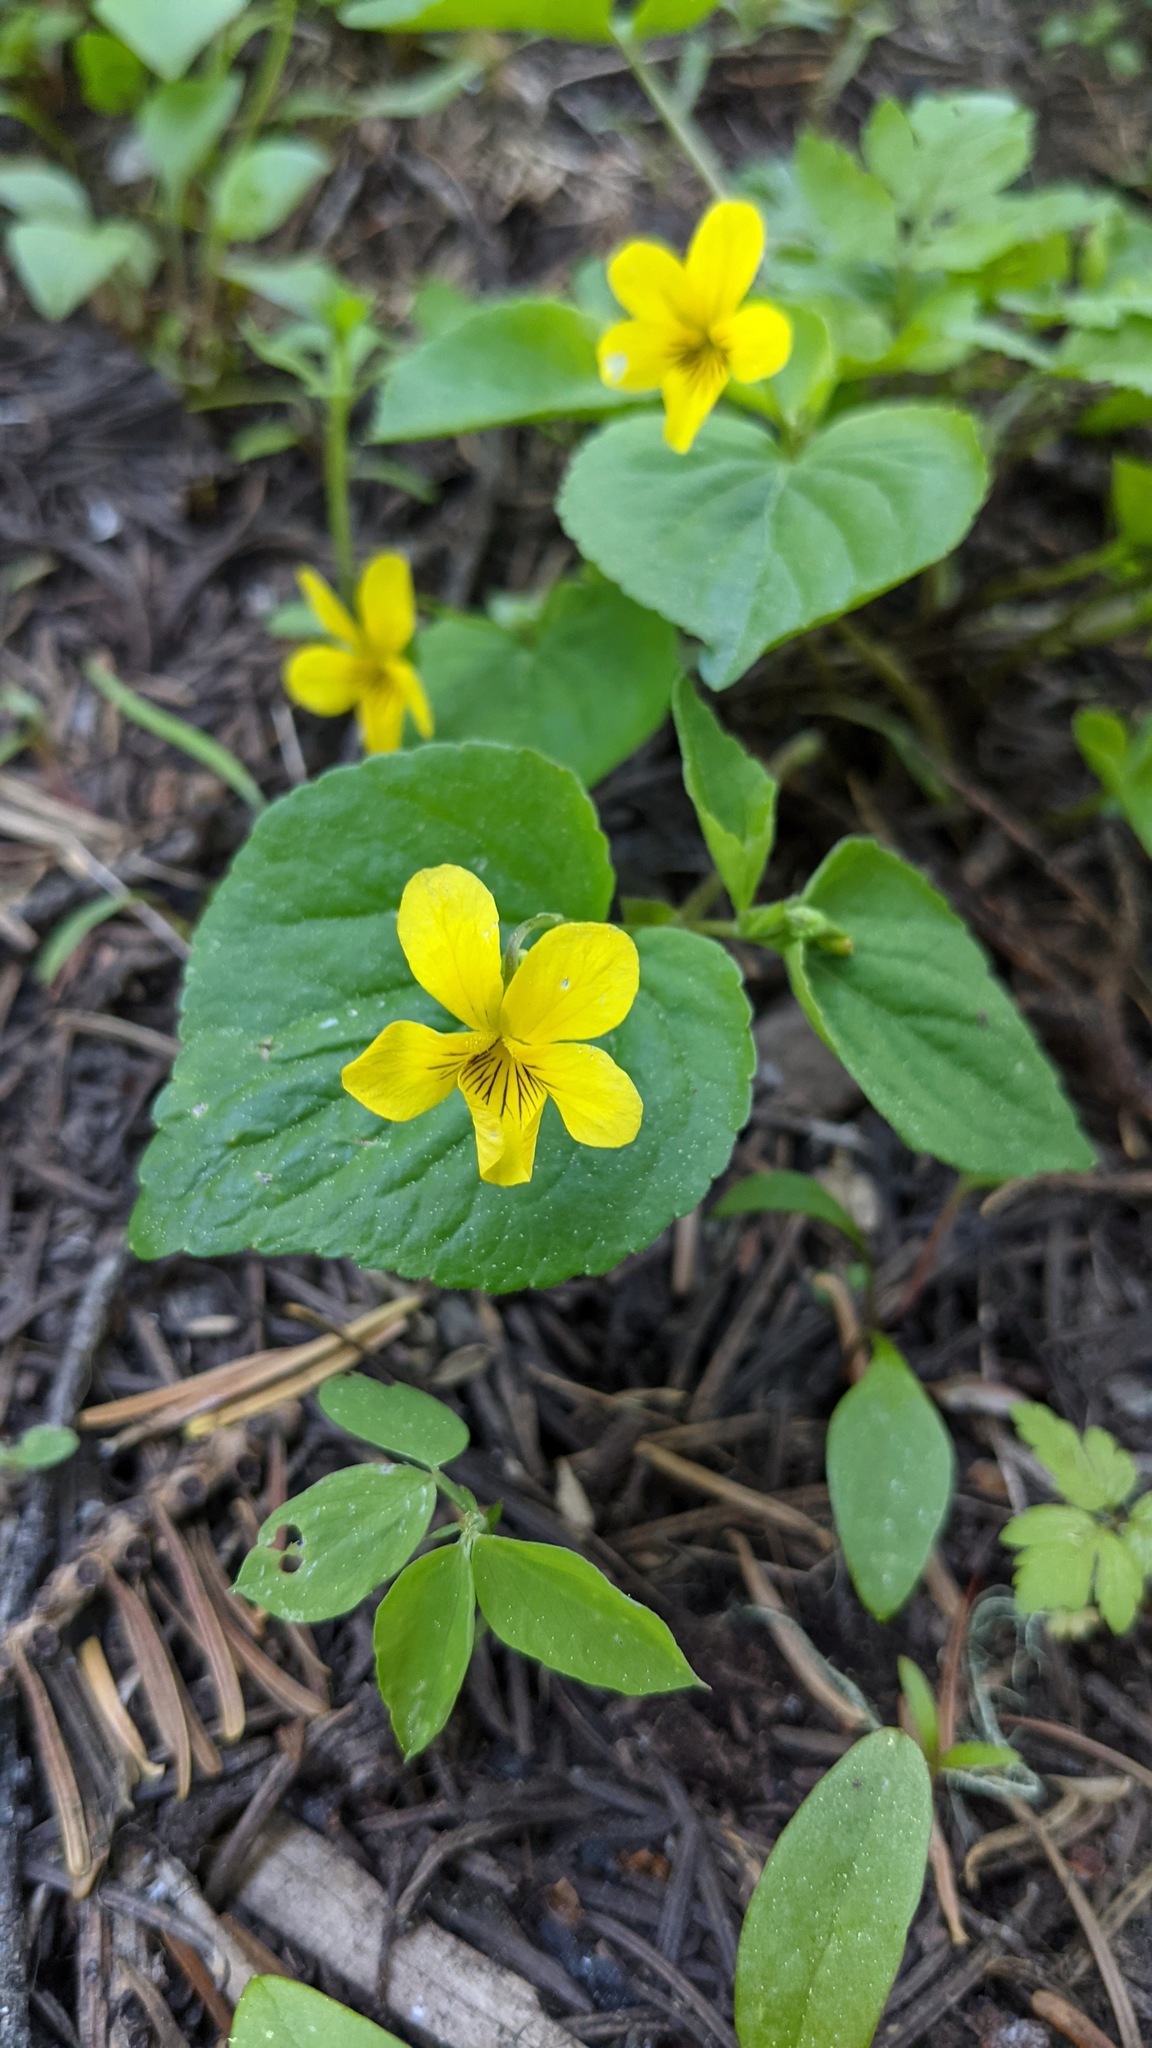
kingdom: Plantae
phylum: Tracheophyta
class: Magnoliopsida
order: Malpighiales
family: Violaceae
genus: Viola
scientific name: Viola glabella
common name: Stream violet
